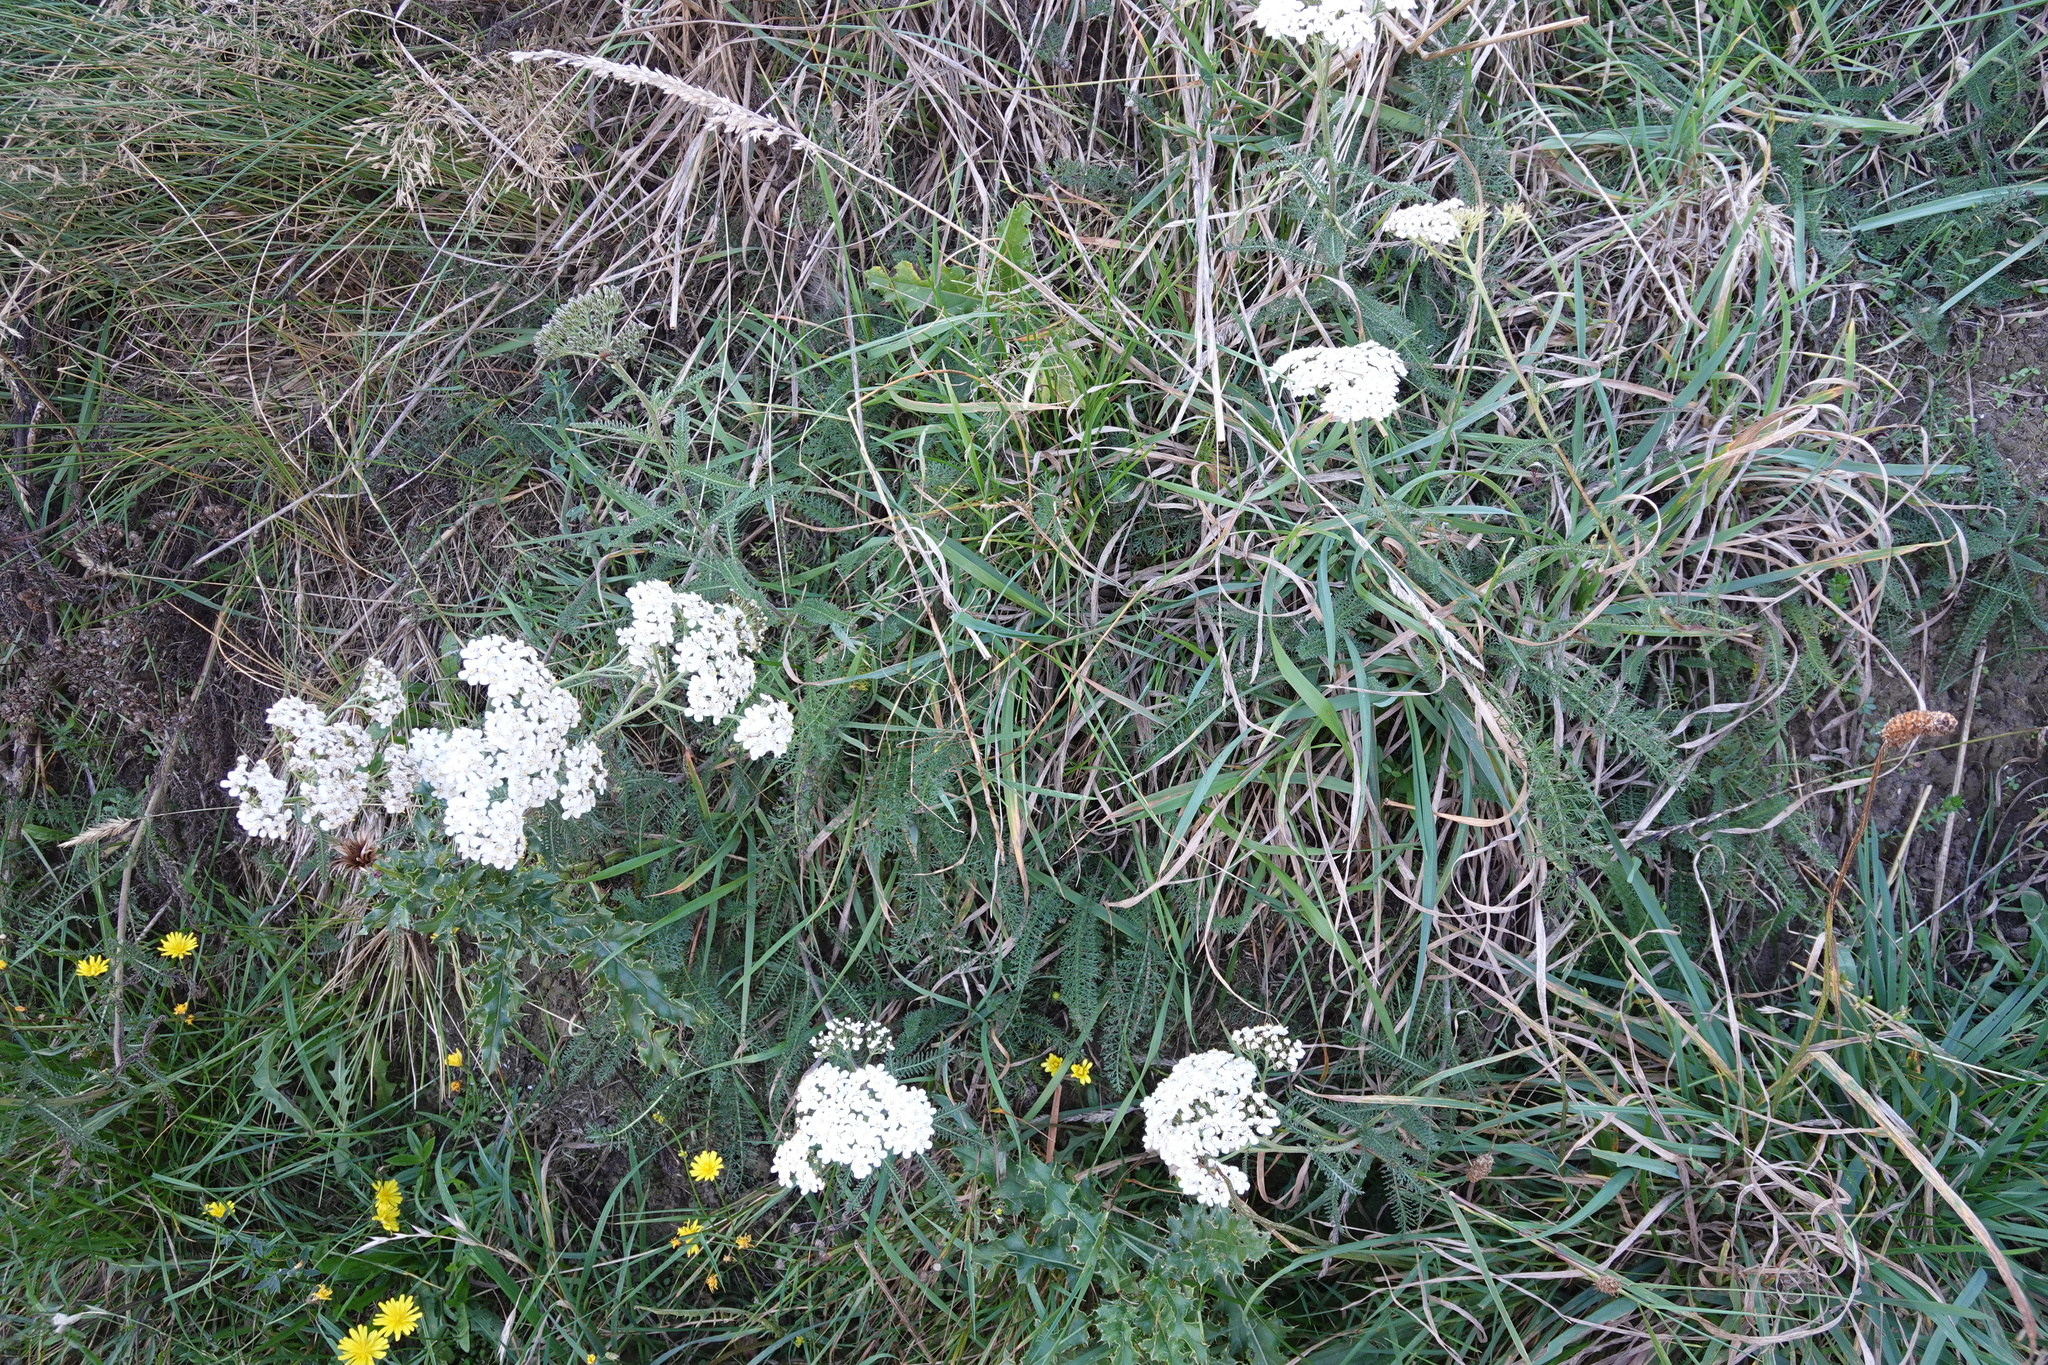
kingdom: Plantae
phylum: Tracheophyta
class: Magnoliopsida
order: Asterales
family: Asteraceae
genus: Achillea
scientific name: Achillea millefolium
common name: Yarrow
